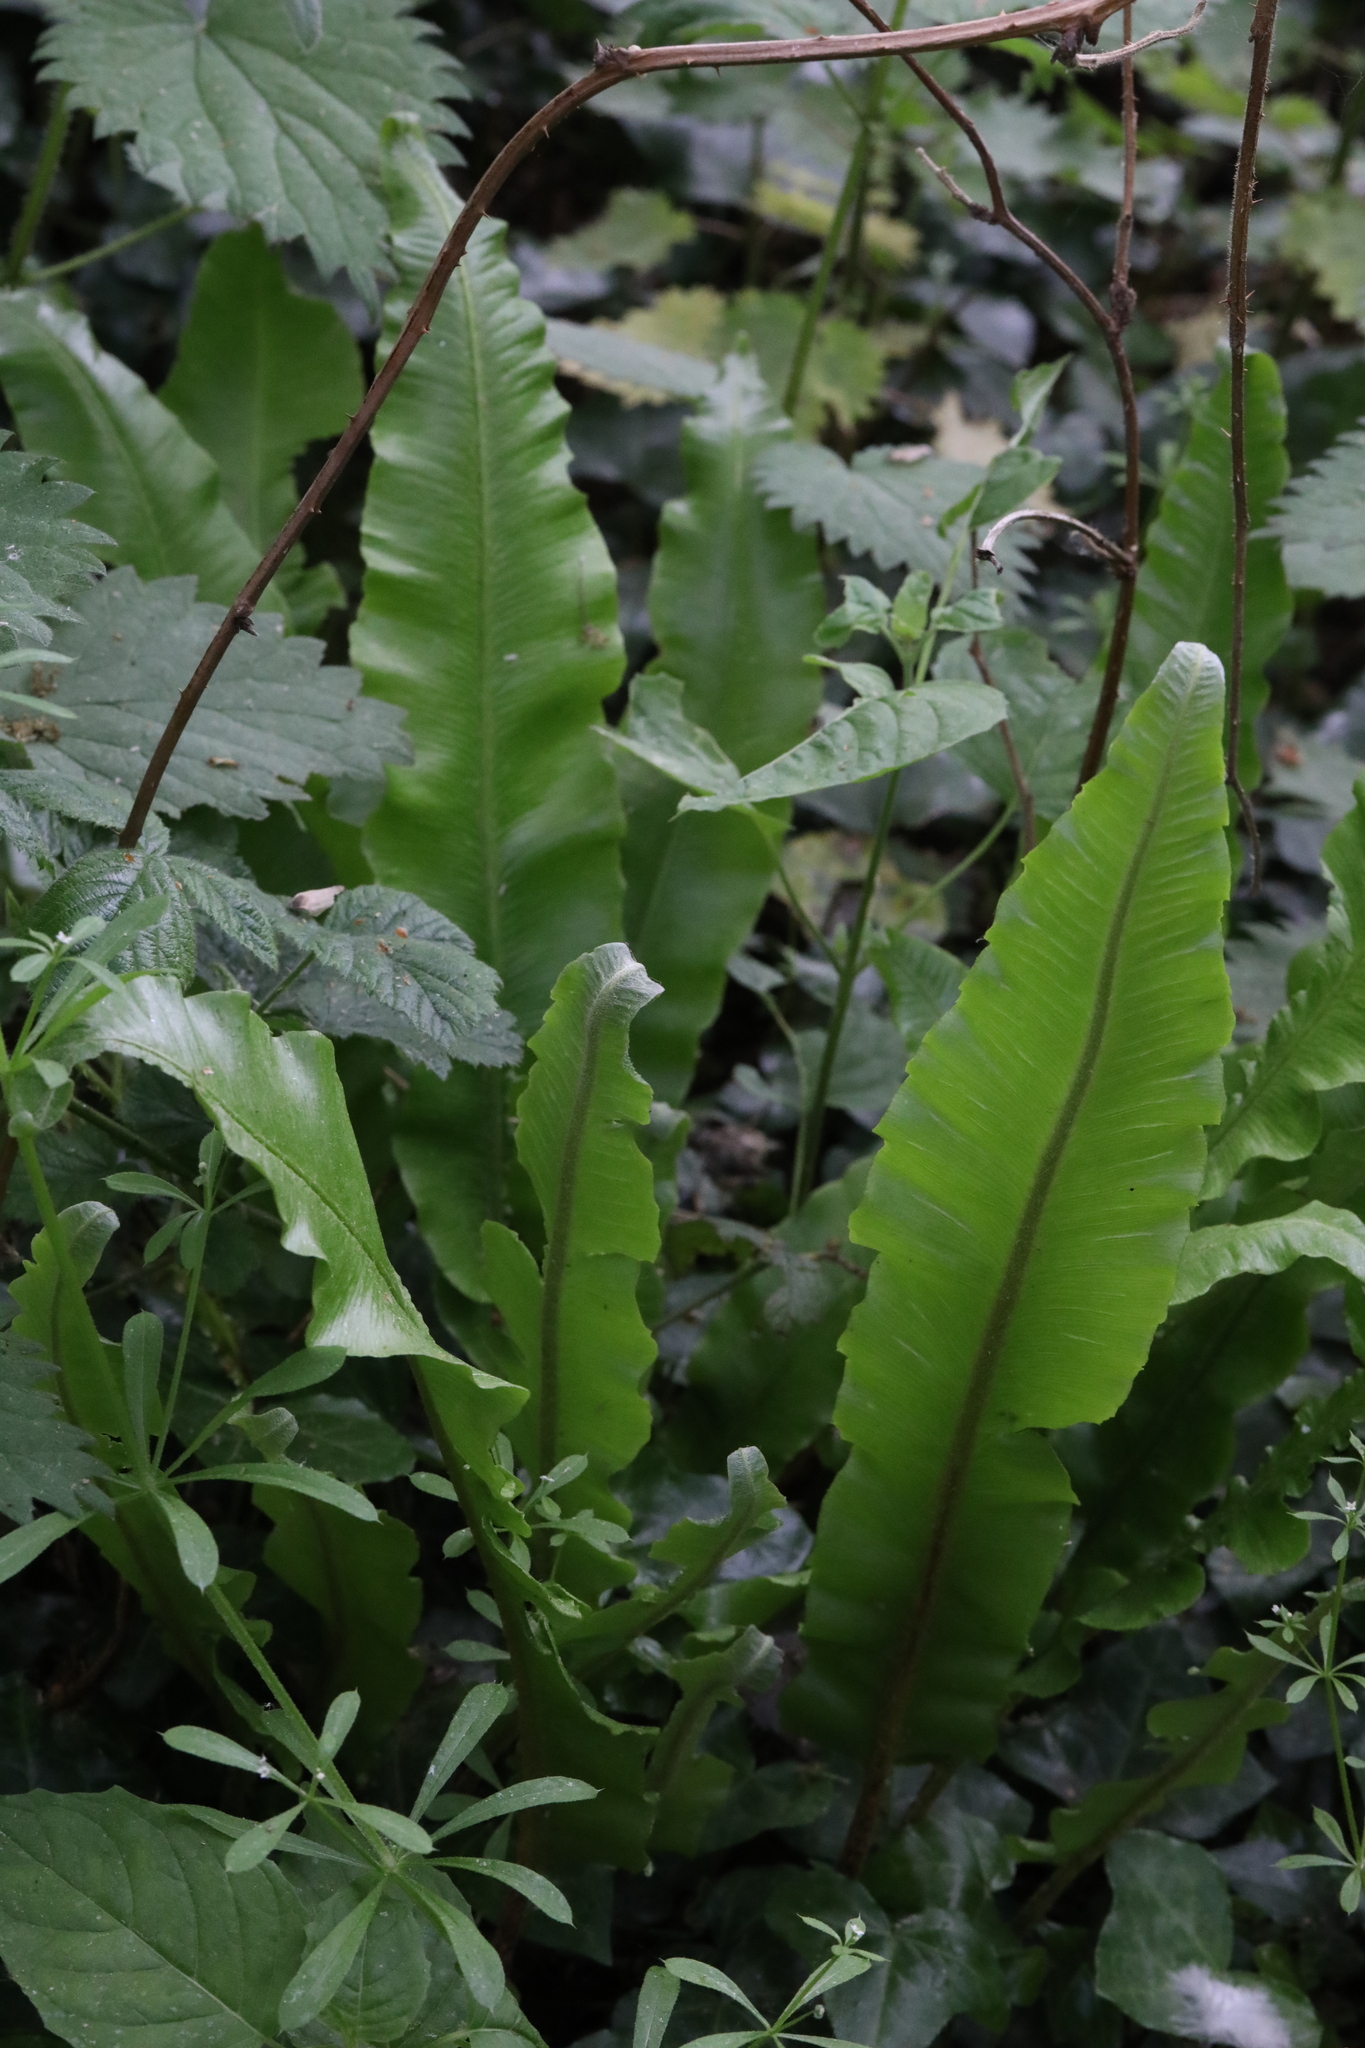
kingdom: Plantae
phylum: Tracheophyta
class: Polypodiopsida
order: Polypodiales
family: Aspleniaceae
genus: Asplenium
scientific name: Asplenium scolopendrium
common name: Hart's-tongue fern
